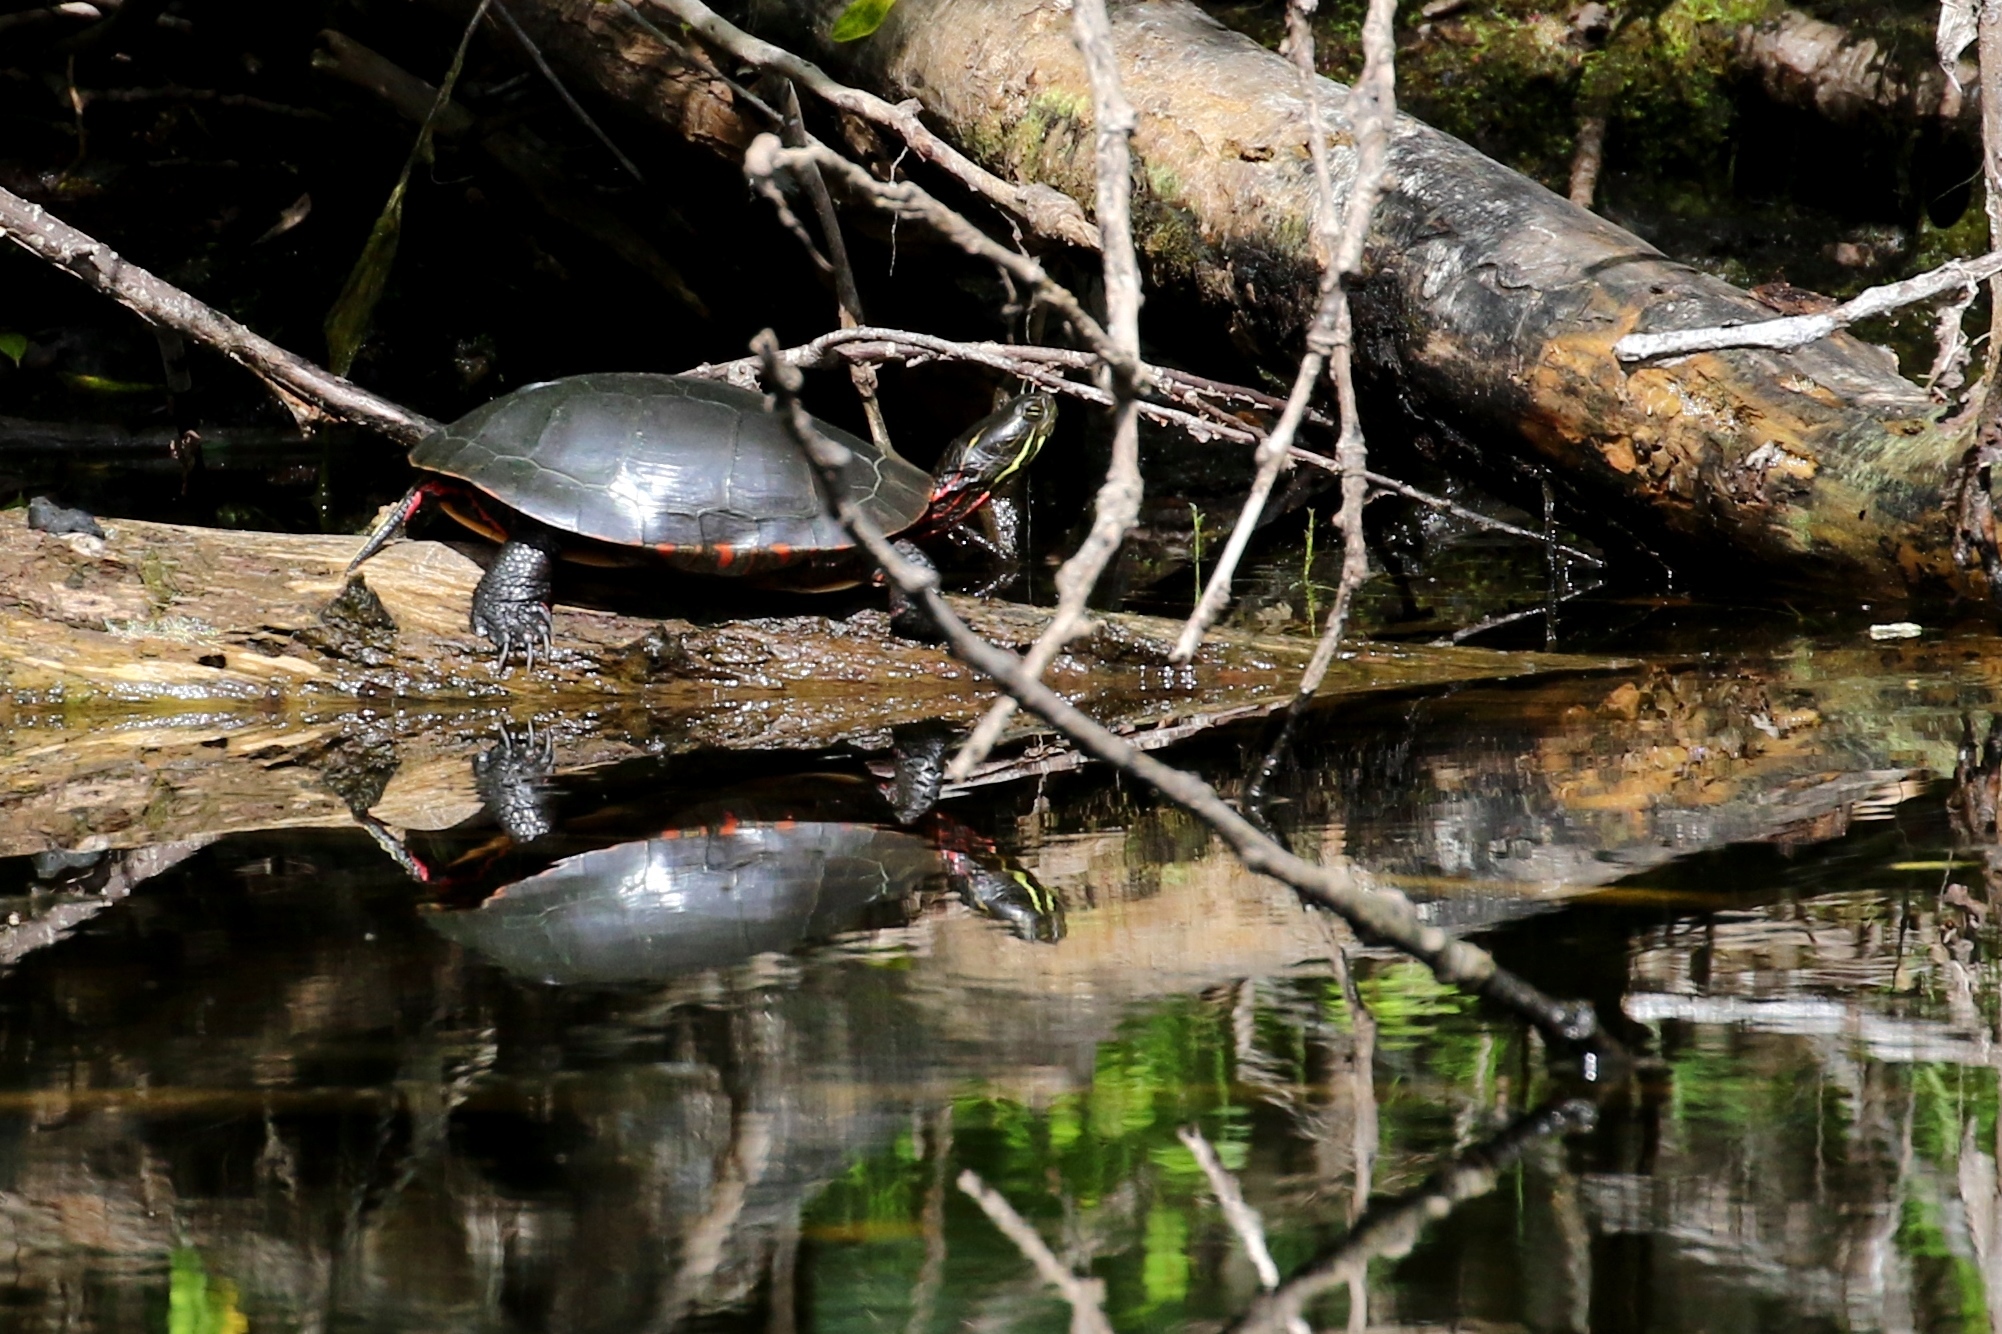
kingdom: Animalia
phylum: Chordata
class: Testudines
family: Emydidae
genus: Chrysemys
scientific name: Chrysemys picta
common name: Painted turtle
